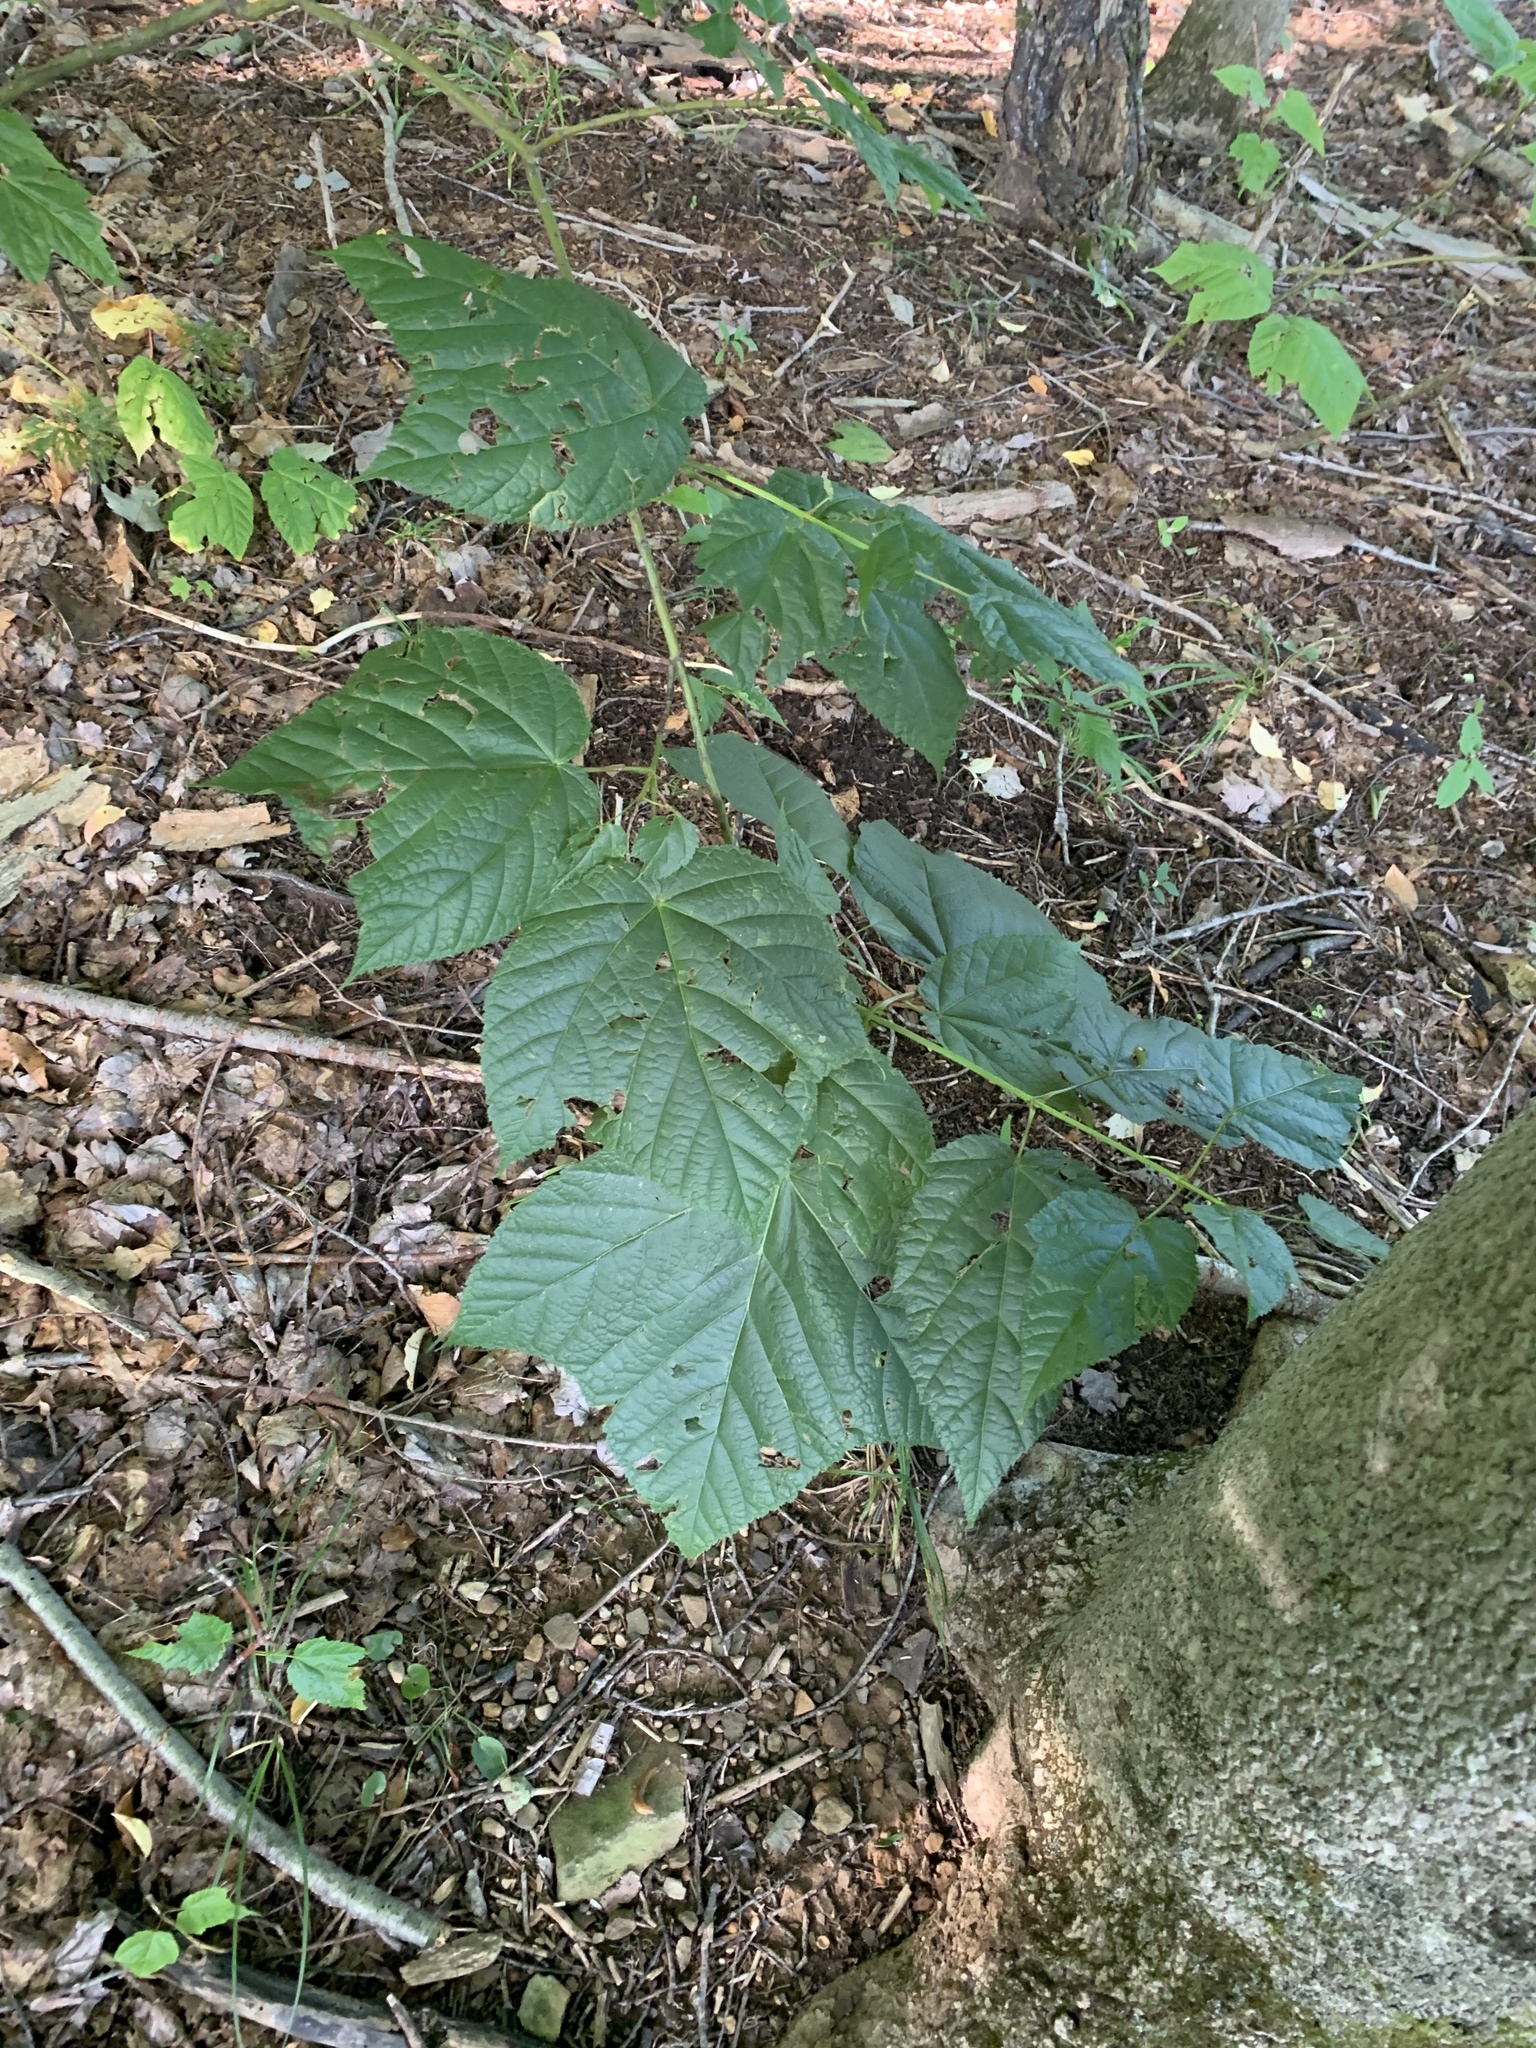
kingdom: Plantae
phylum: Tracheophyta
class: Magnoliopsida
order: Sapindales
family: Sapindaceae
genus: Acer
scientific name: Acer pensylvanicum
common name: Moosewood
